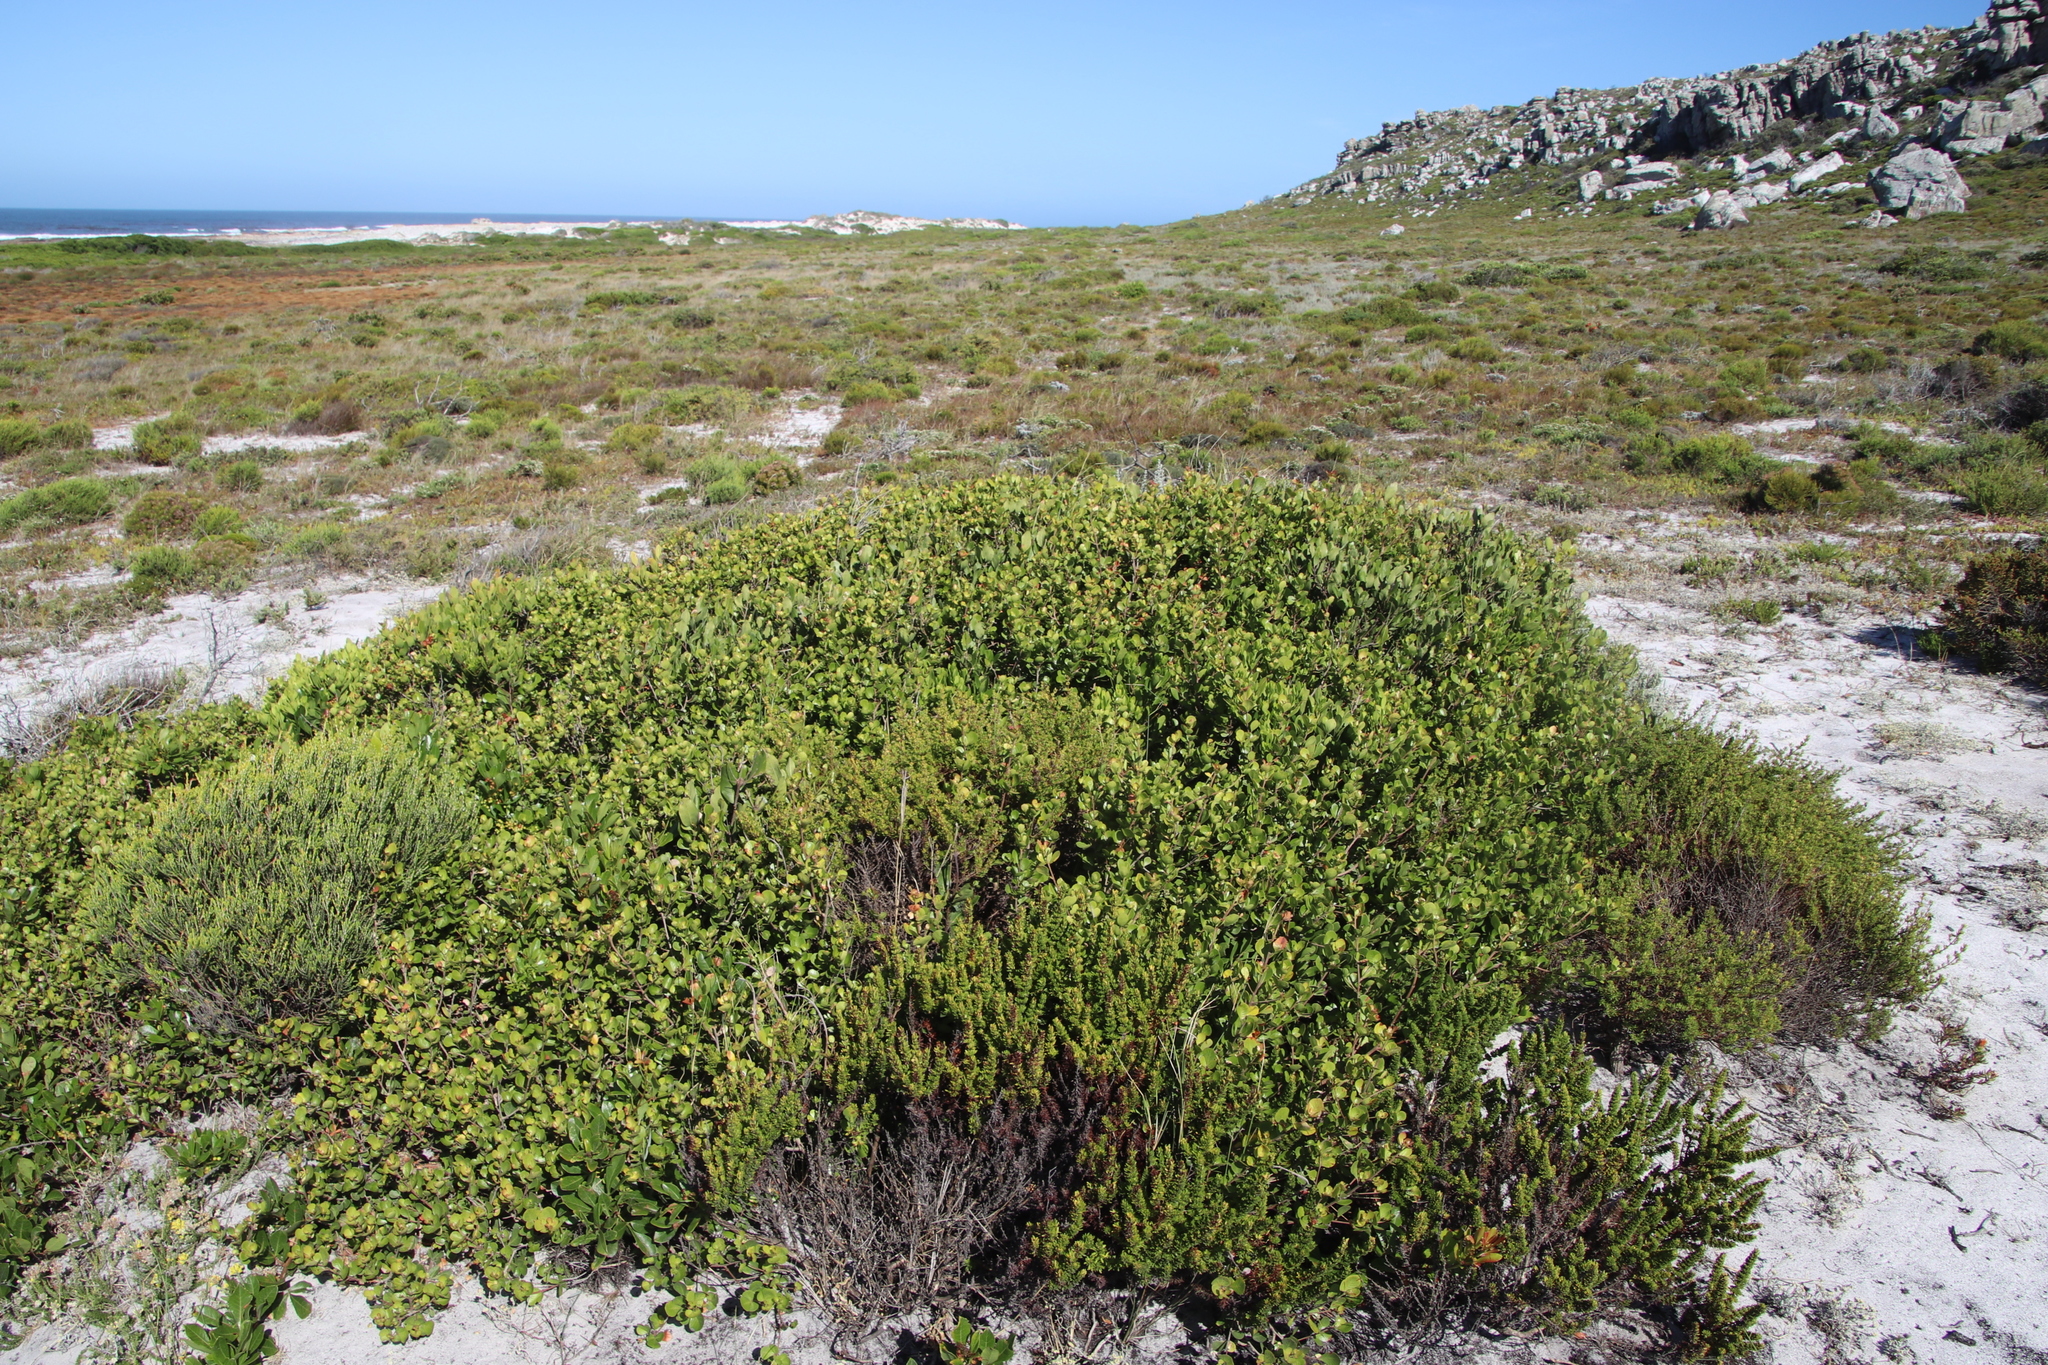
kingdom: Plantae
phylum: Tracheophyta
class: Magnoliopsida
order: Sapindales
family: Anacardiaceae
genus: Searsia
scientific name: Searsia lucida
